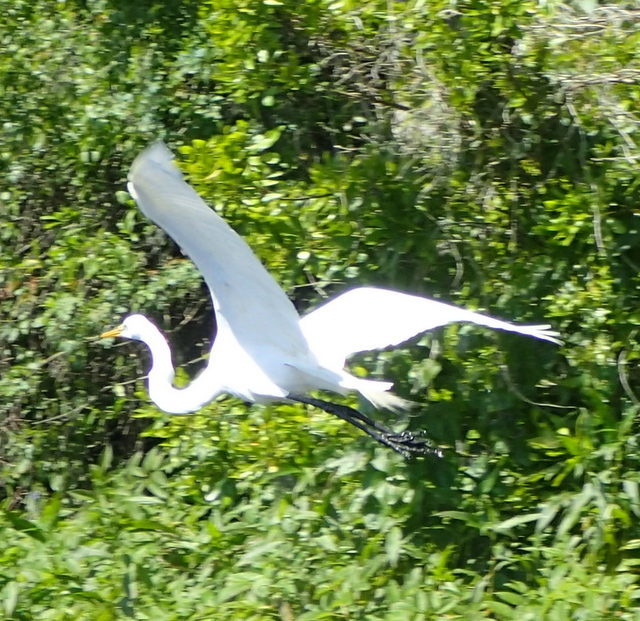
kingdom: Animalia
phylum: Chordata
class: Aves
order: Pelecaniformes
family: Ardeidae
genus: Ardea
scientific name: Ardea alba
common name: Great egret
